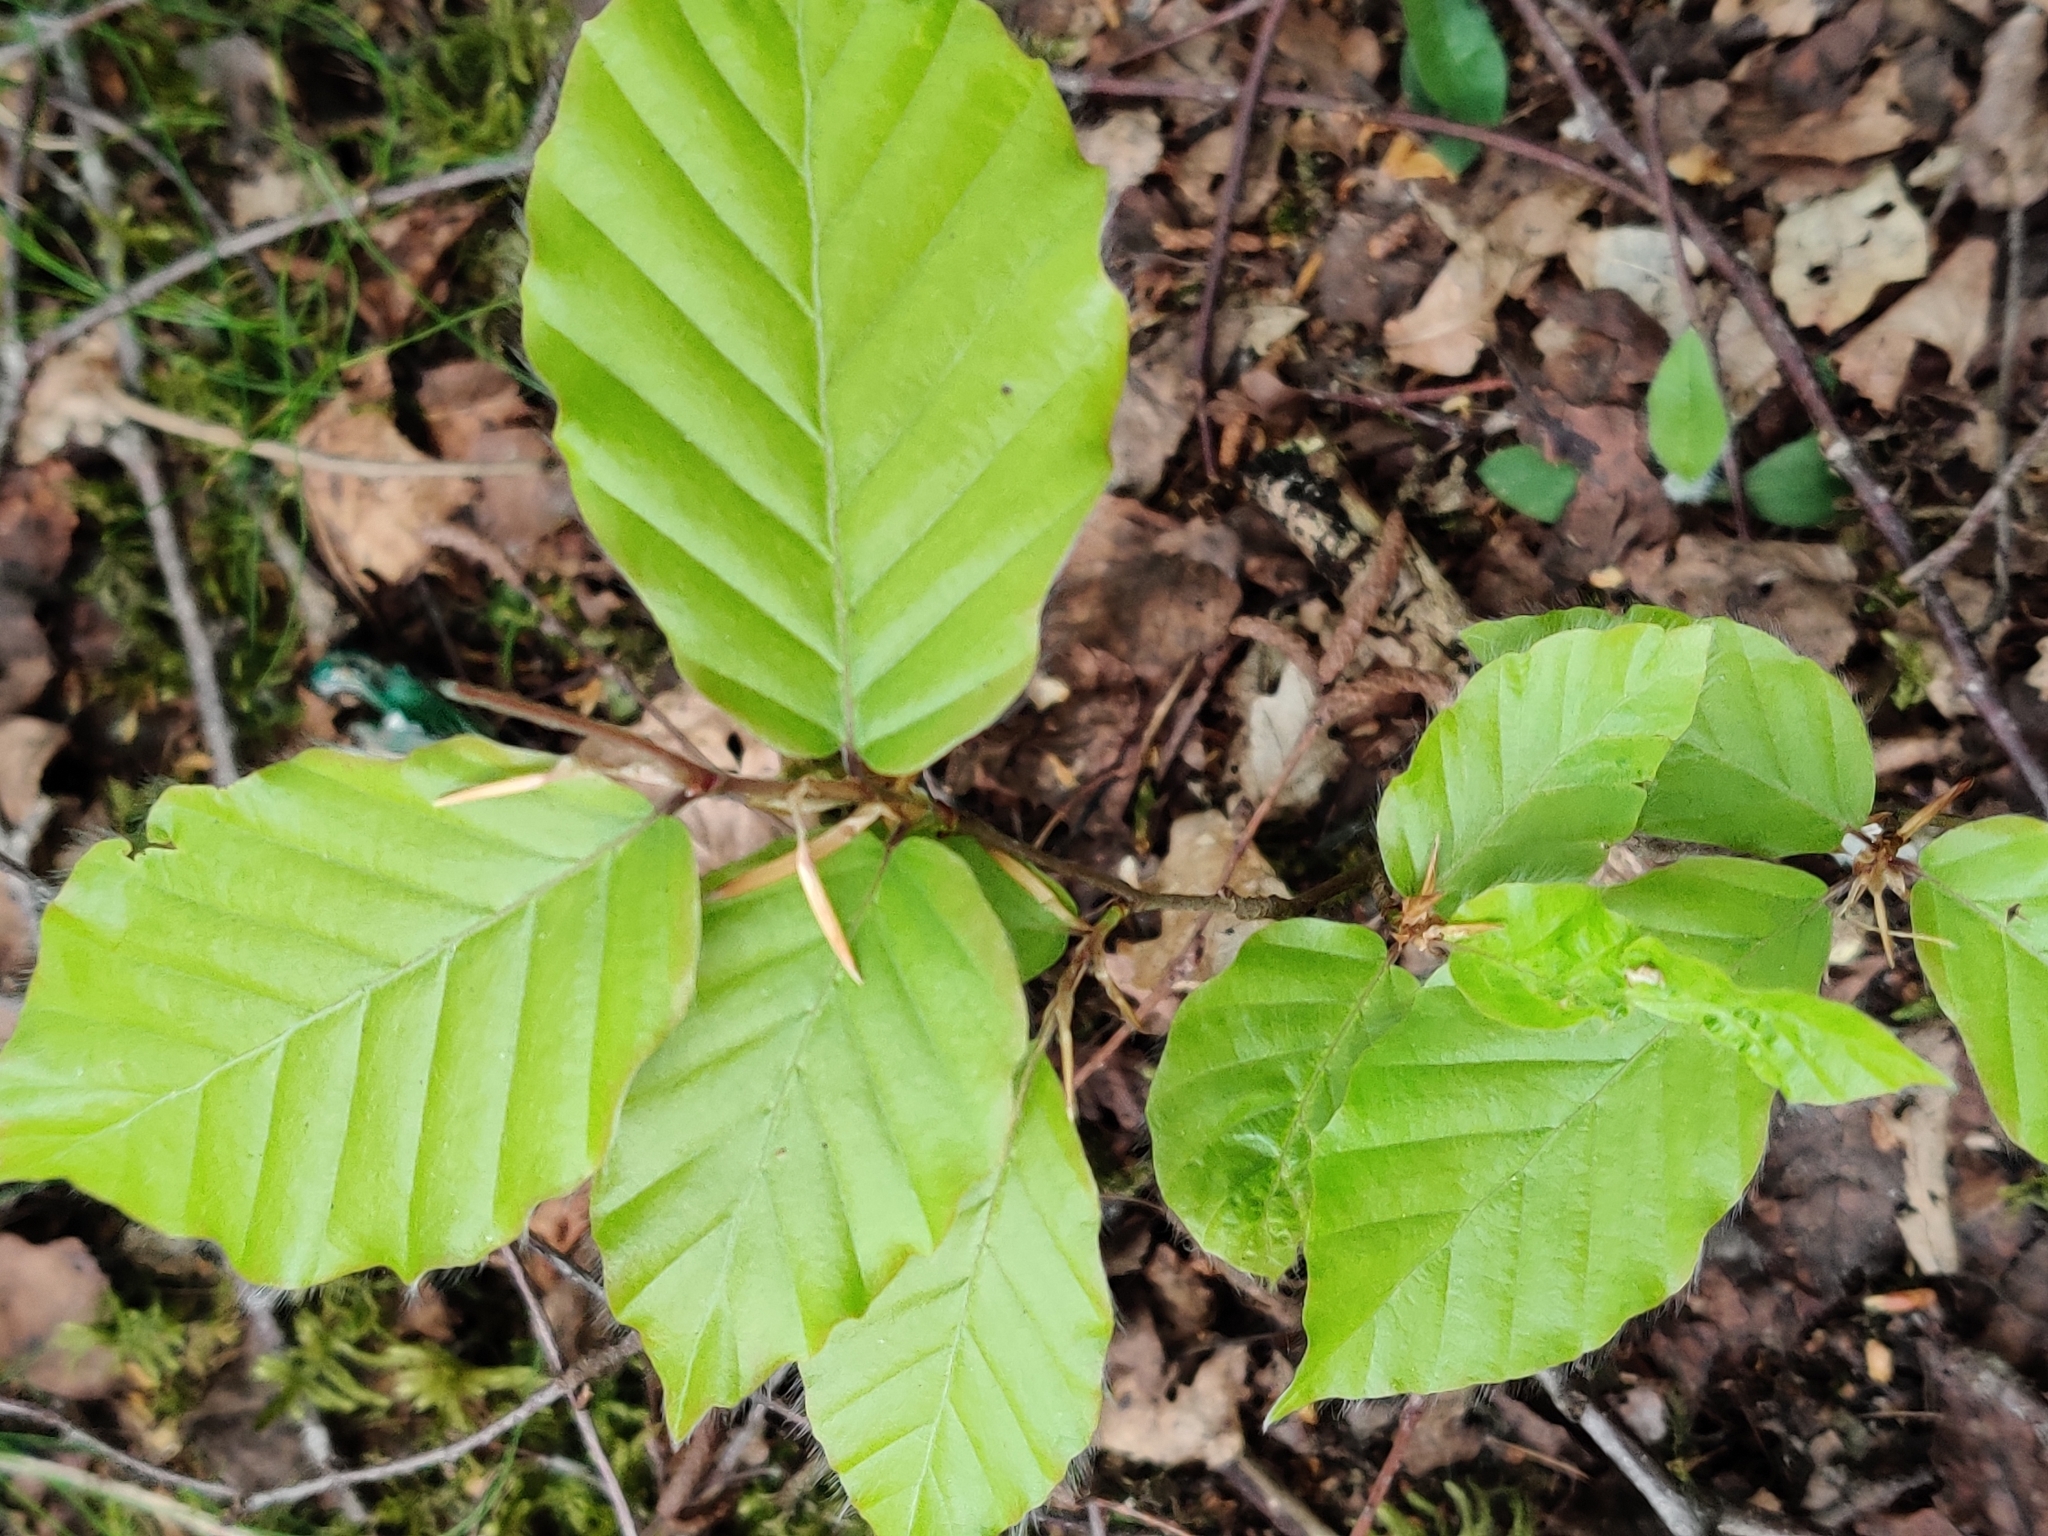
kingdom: Plantae
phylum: Tracheophyta
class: Magnoliopsida
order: Fagales
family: Fagaceae
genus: Fagus
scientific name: Fagus sylvatica
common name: Beech
